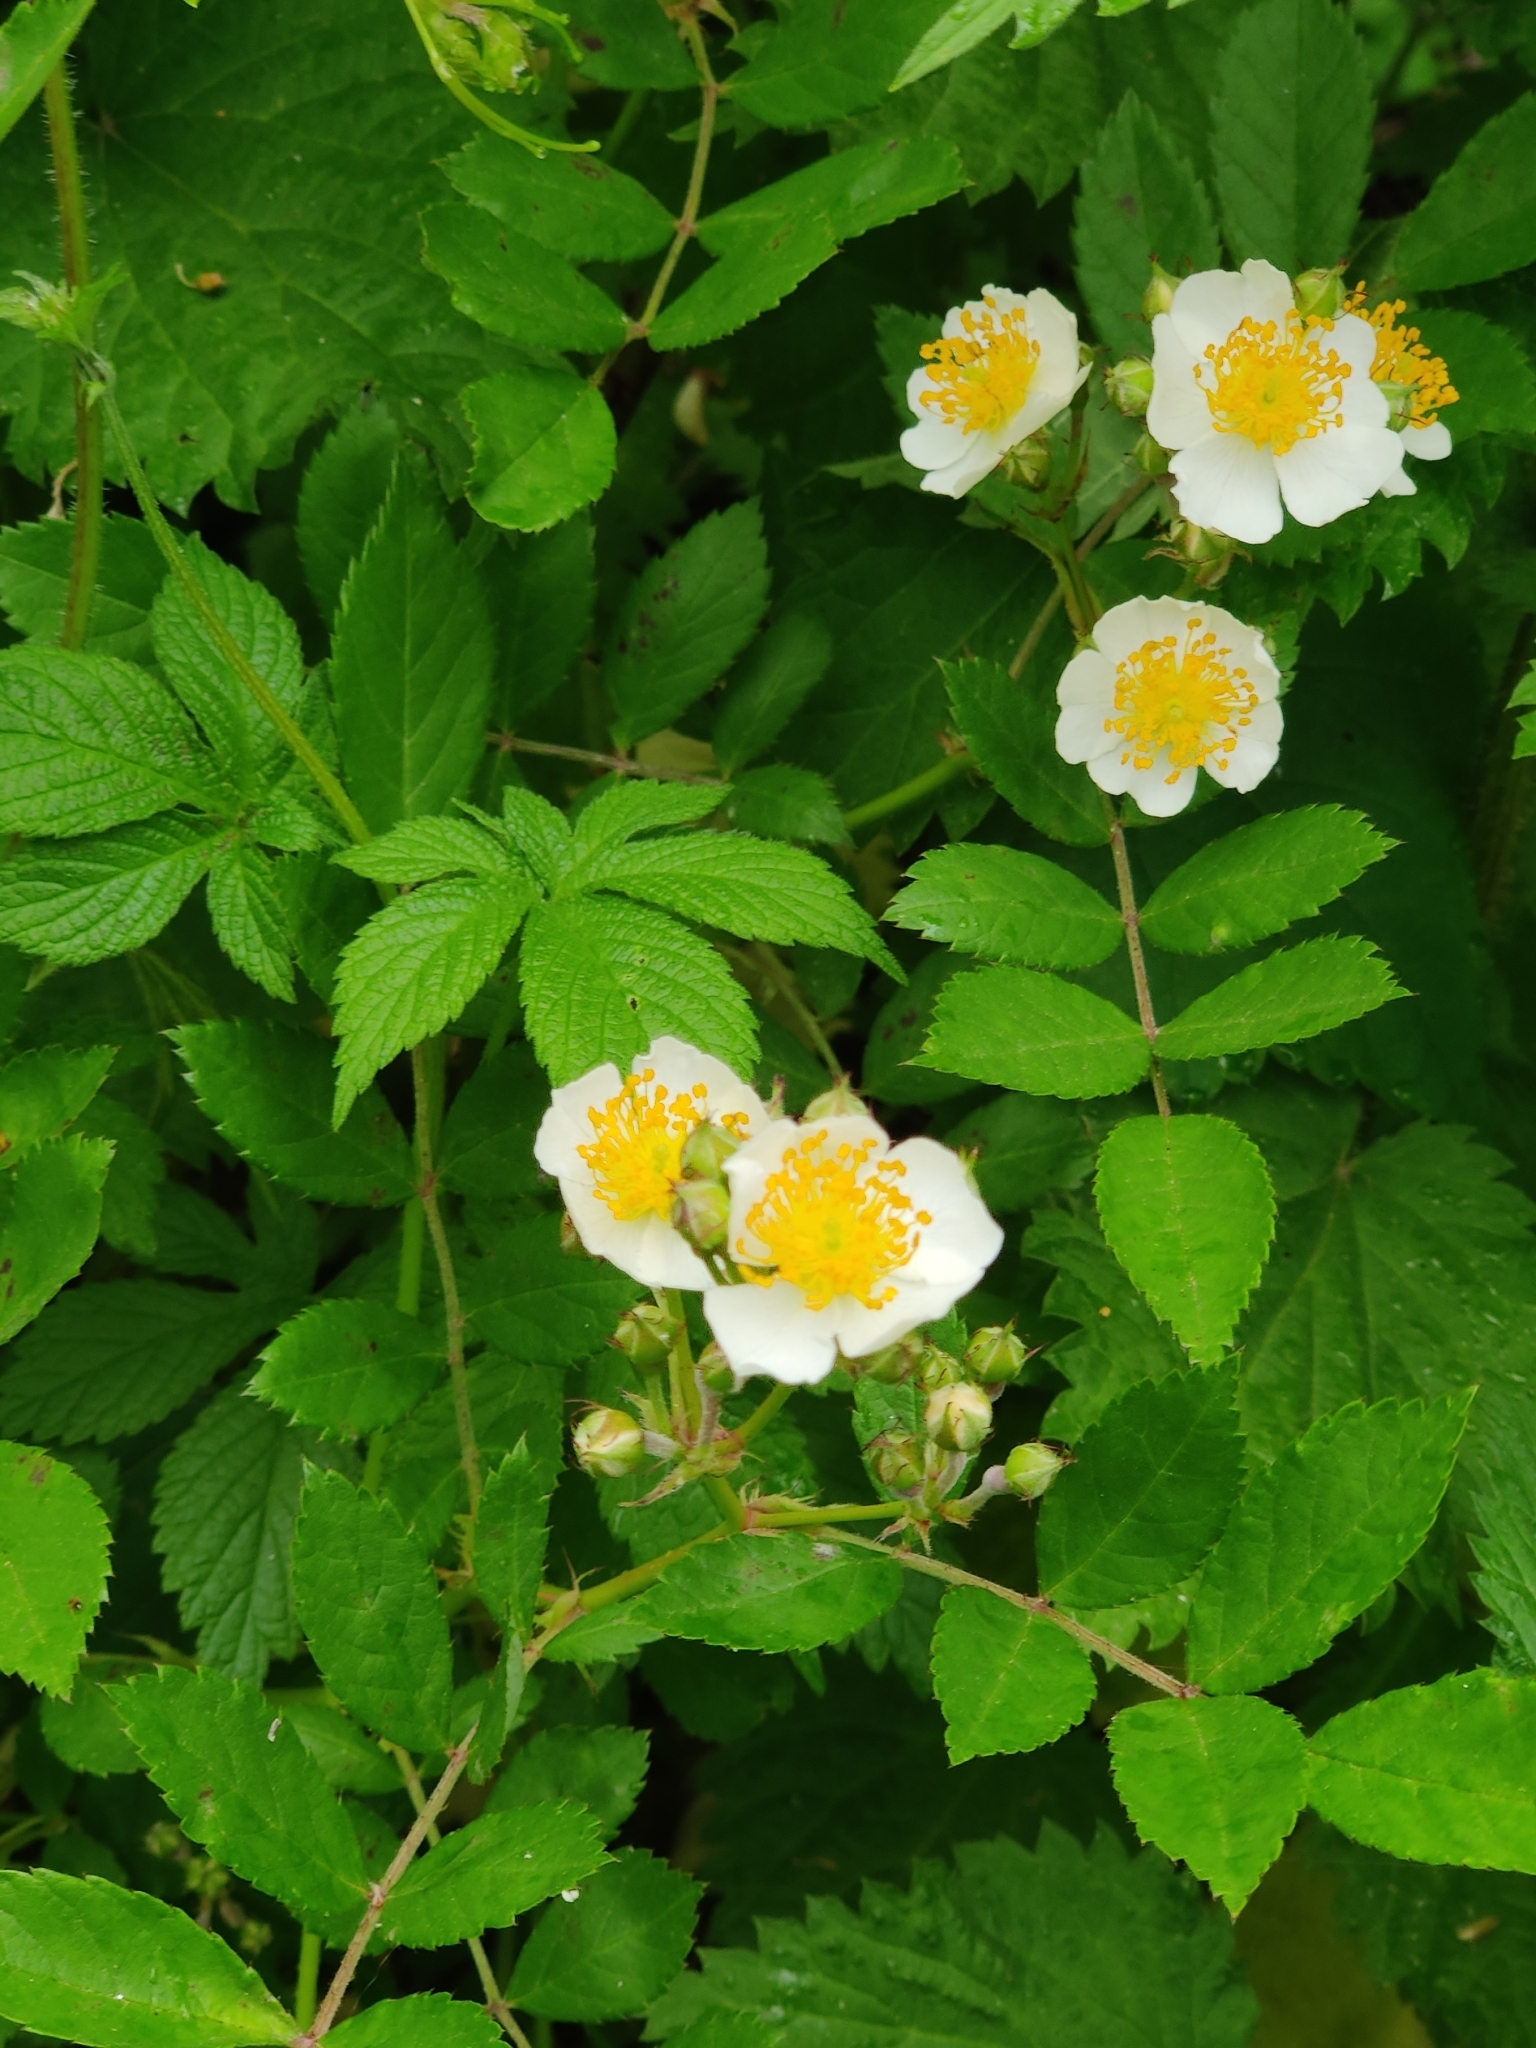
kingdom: Plantae
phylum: Tracheophyta
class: Magnoliopsida
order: Rosales
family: Rosaceae
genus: Rosa
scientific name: Rosa multiflora
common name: Multiflora rose
